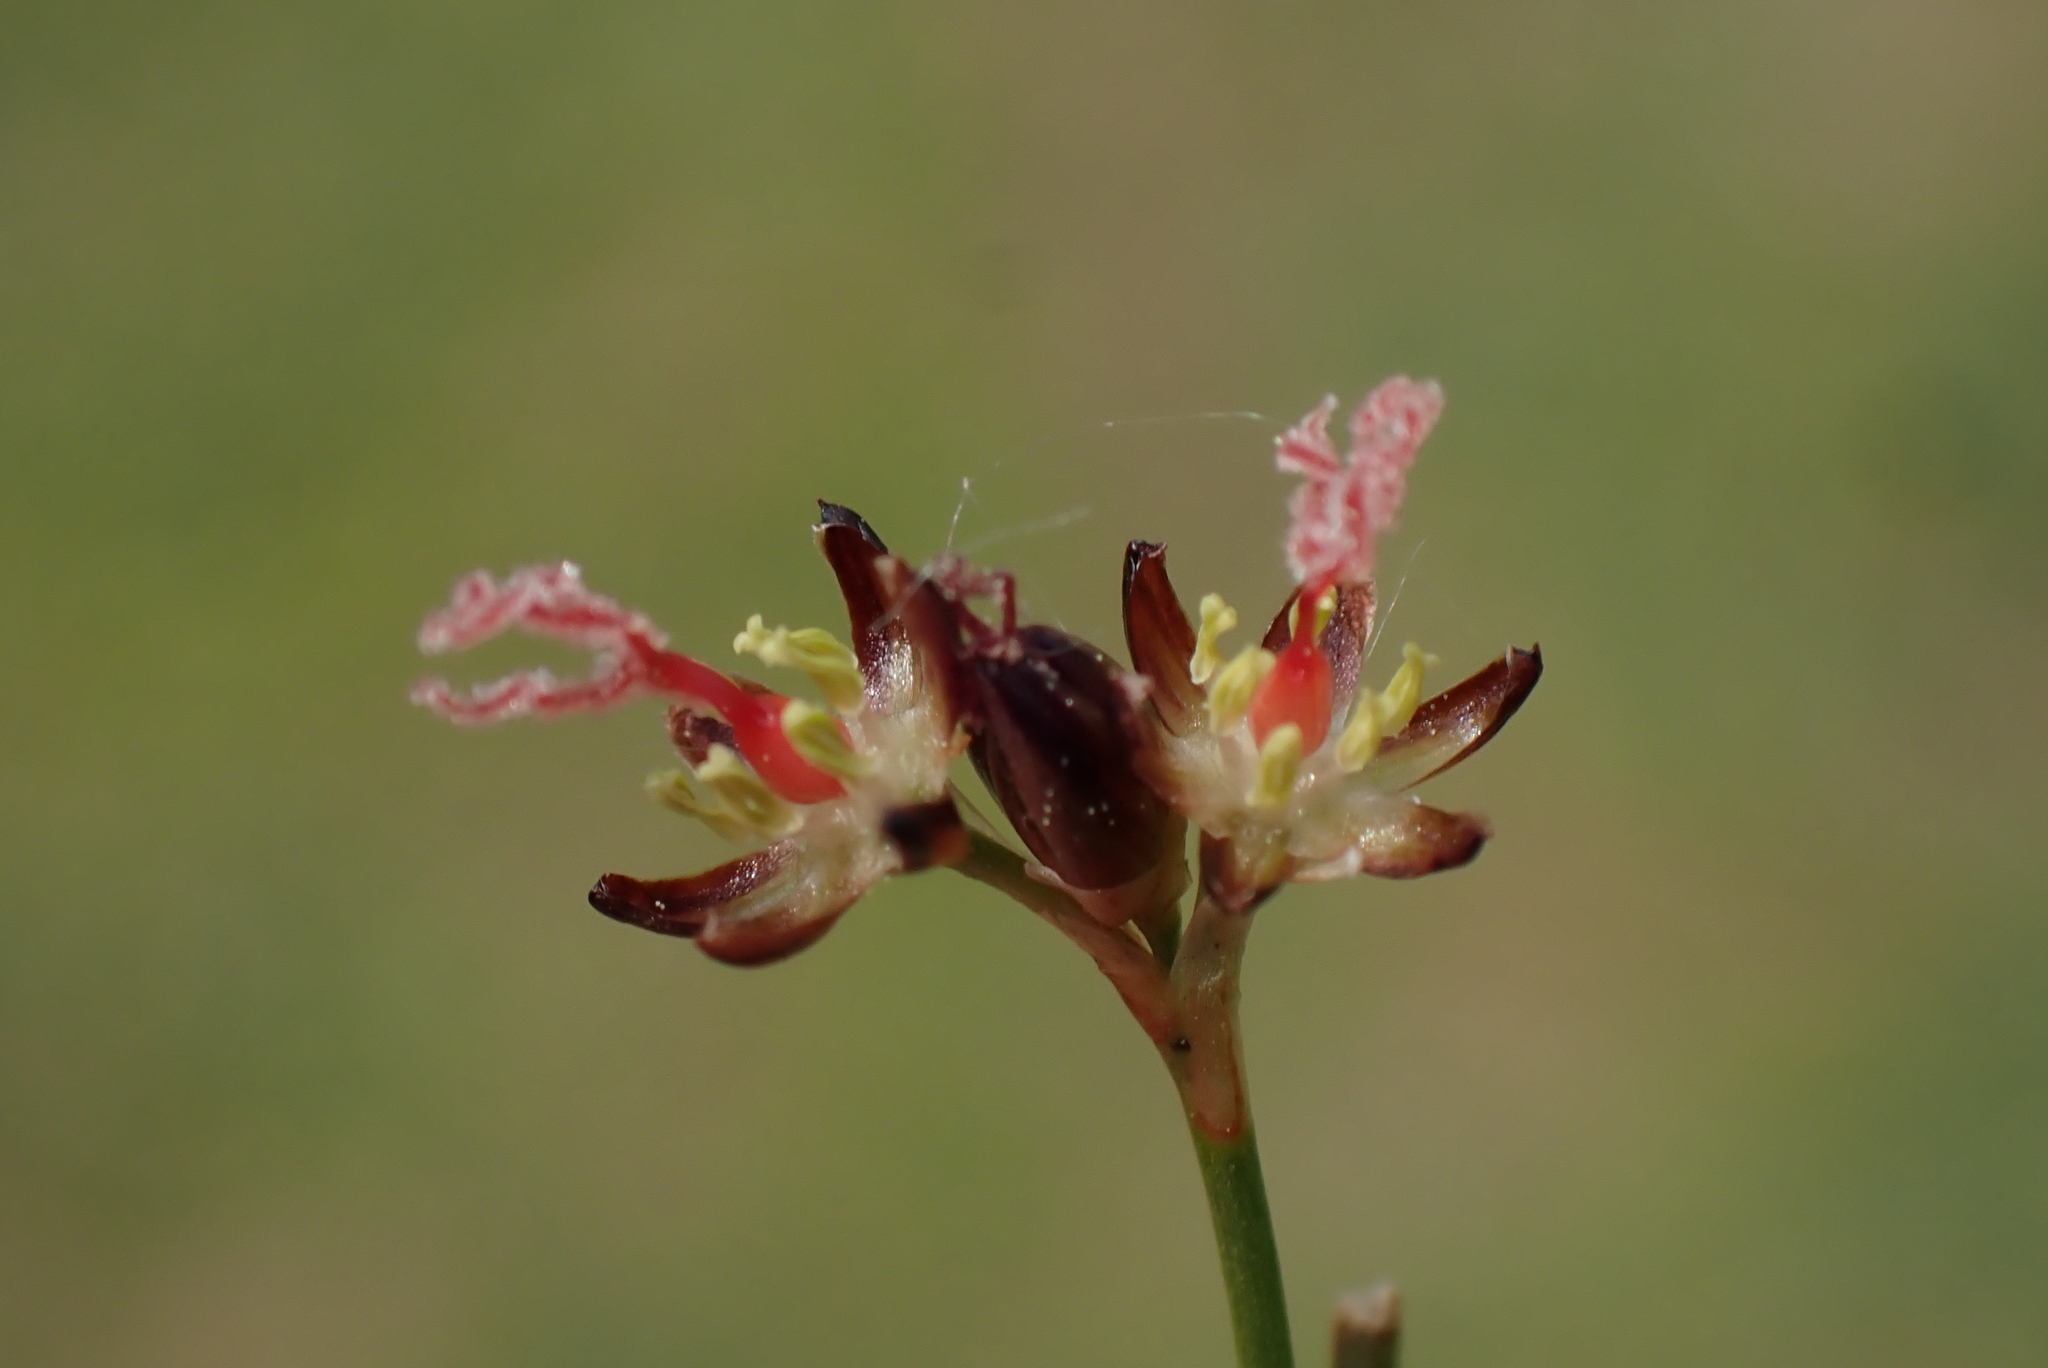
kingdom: Plantae
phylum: Tracheophyta
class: Liliopsida
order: Poales
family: Juncaceae
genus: Juncus
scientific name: Juncus gerardi
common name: Saltmarsh rush
